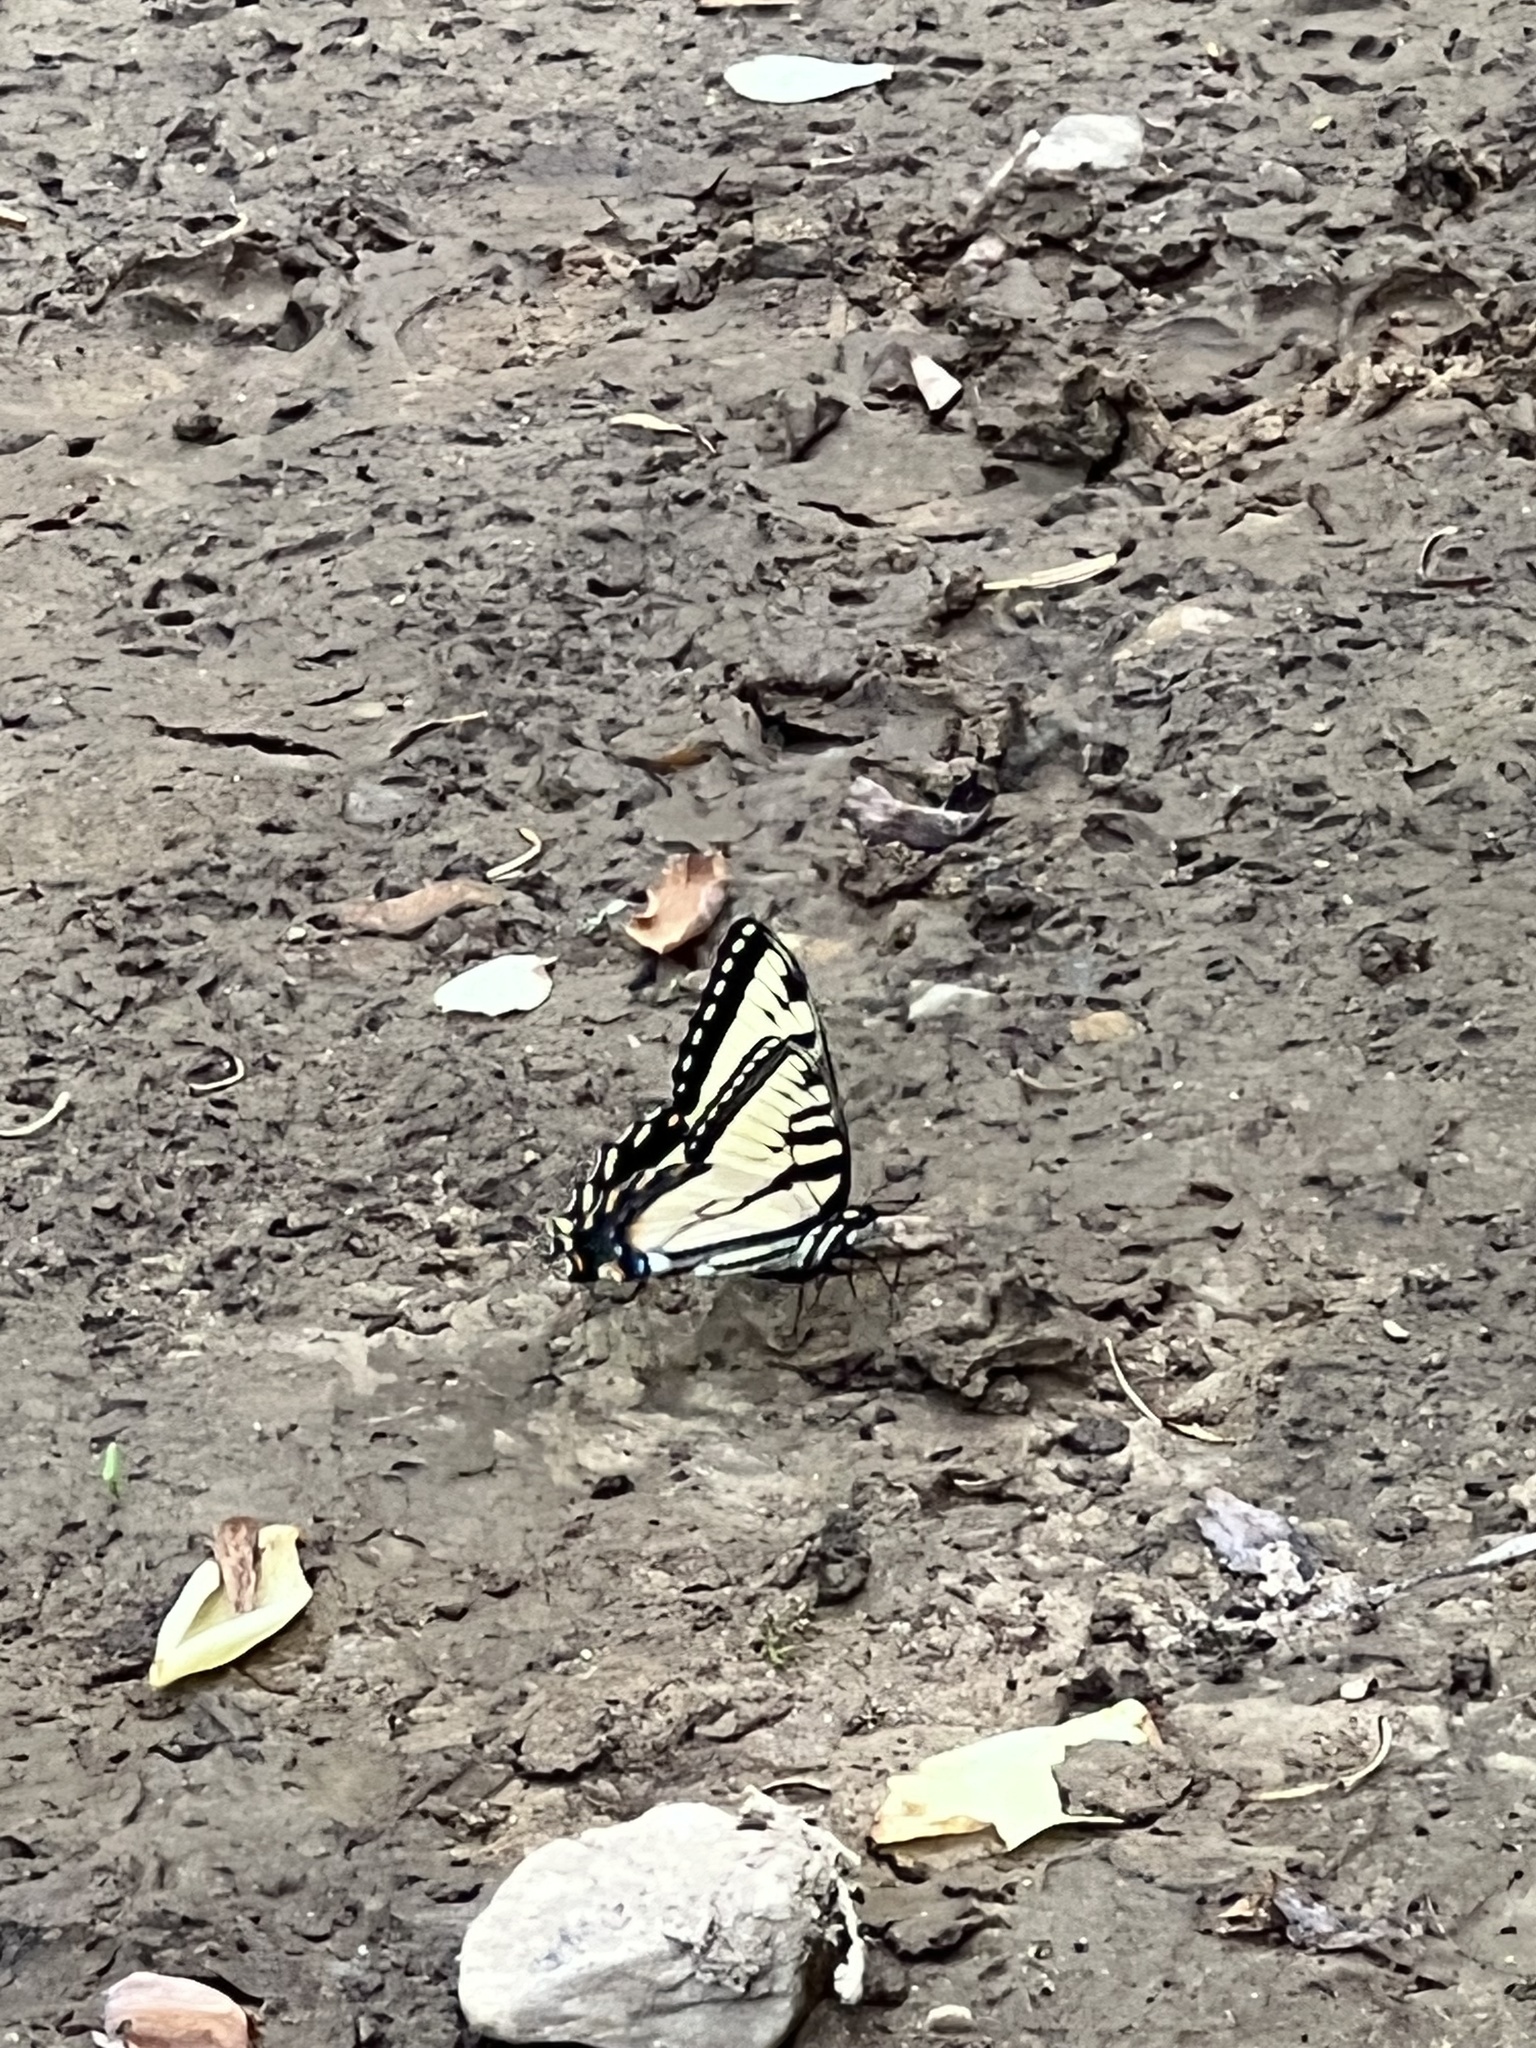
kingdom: Animalia
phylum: Arthropoda
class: Insecta
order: Lepidoptera
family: Papilionidae
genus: Papilio
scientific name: Papilio glaucus
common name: Tiger swallowtail
